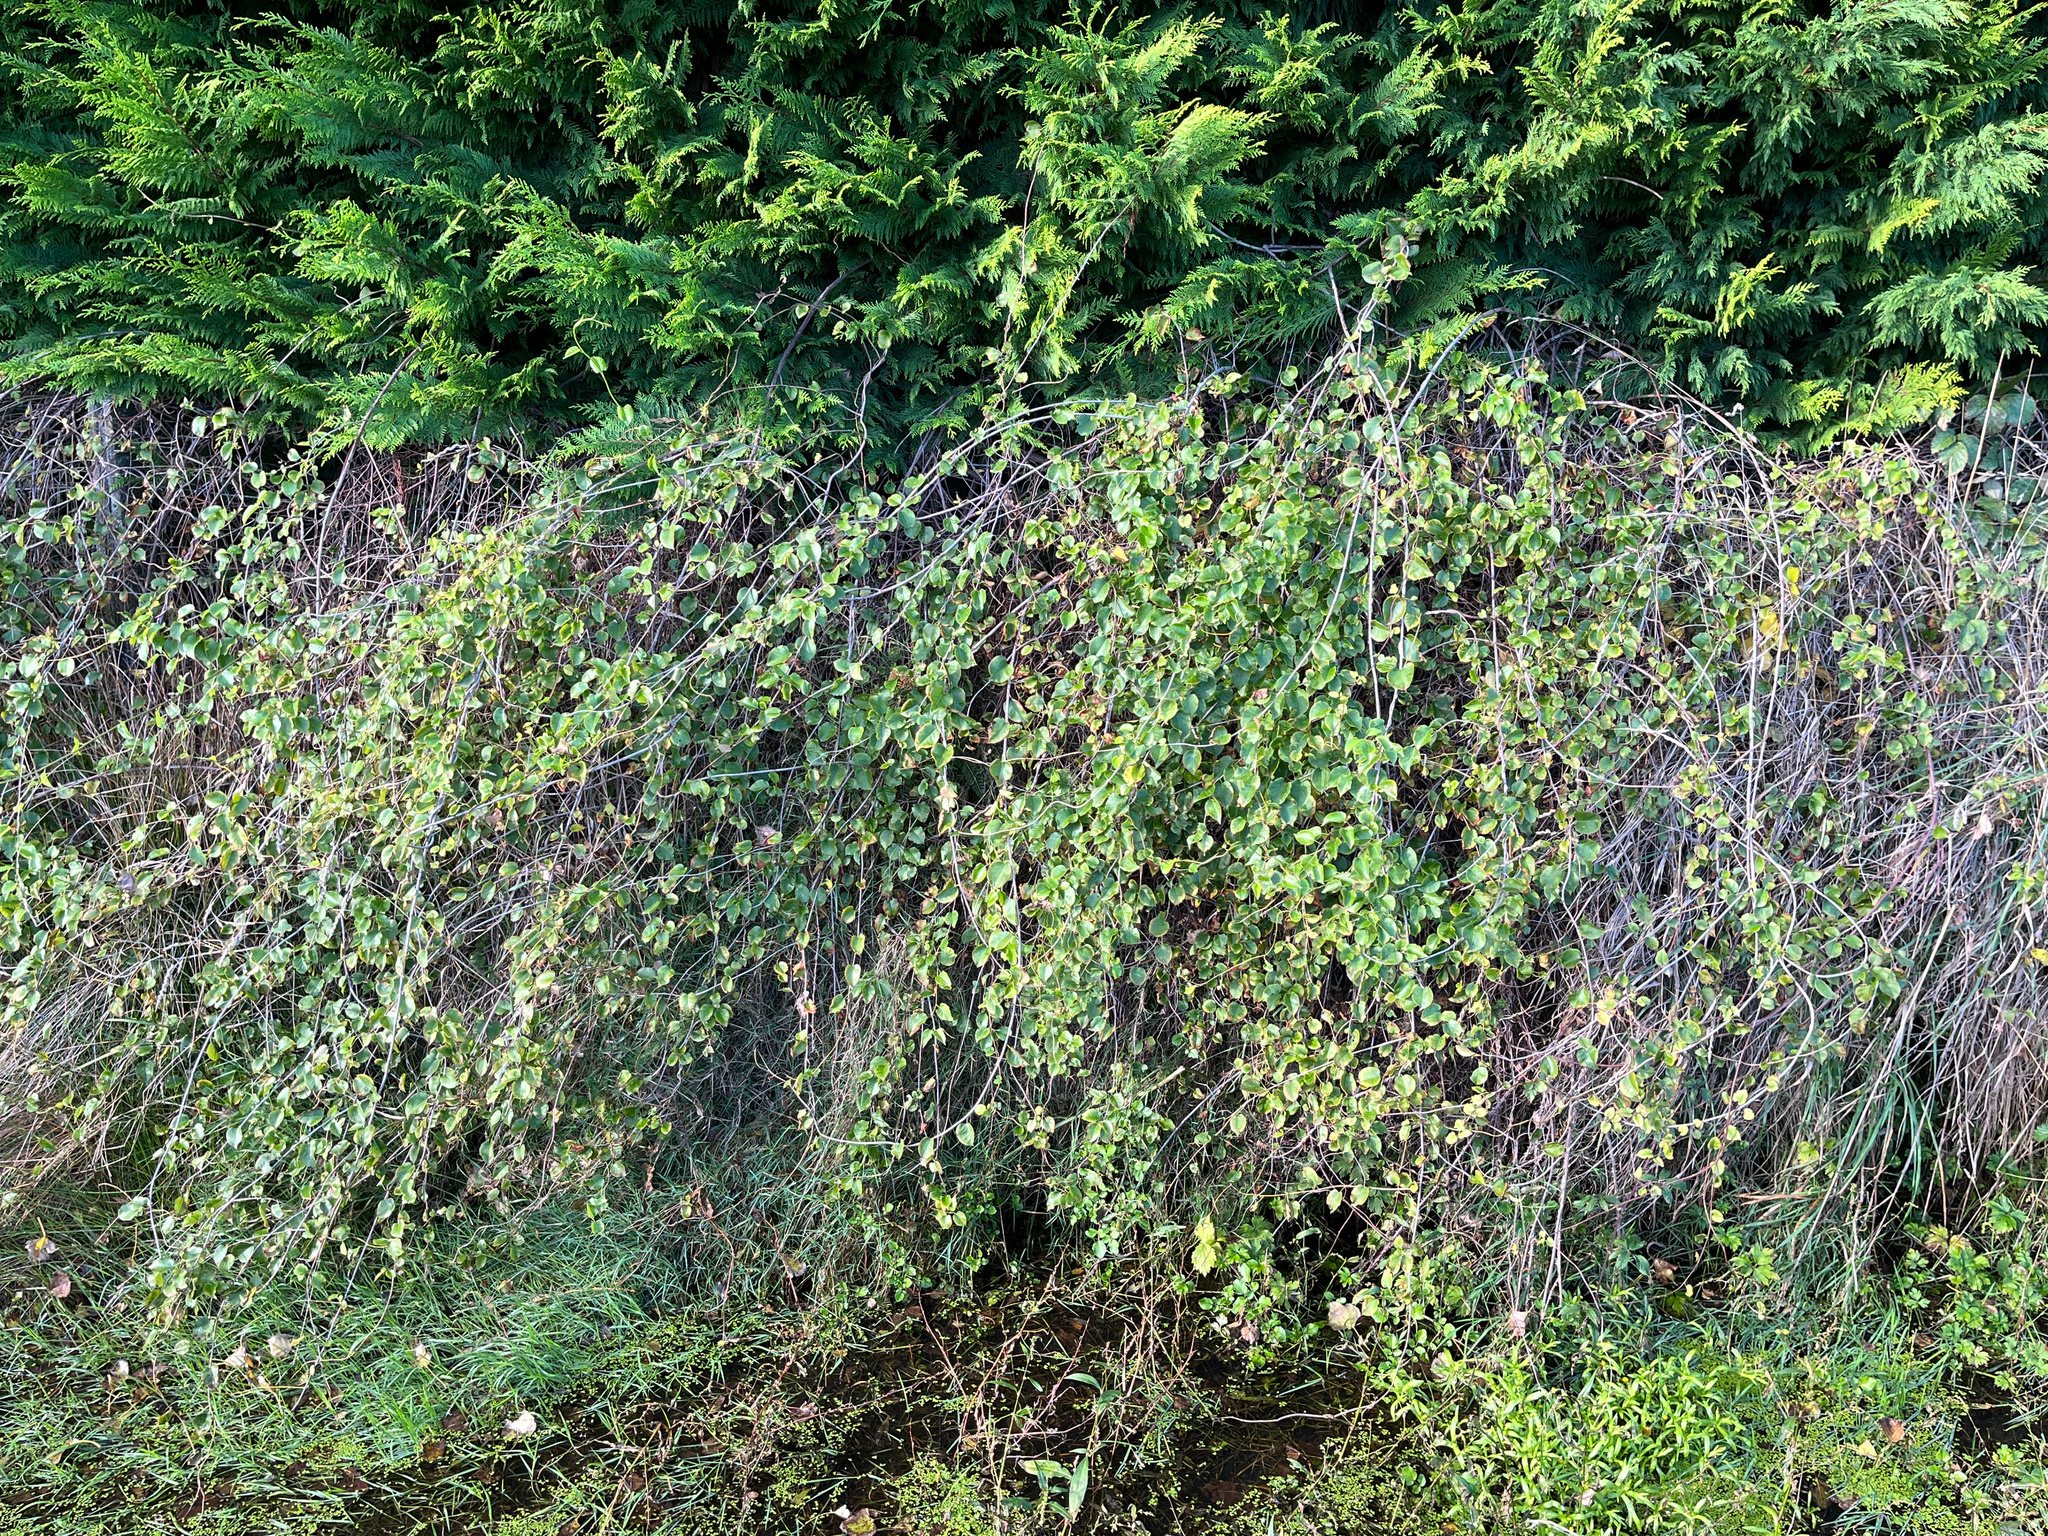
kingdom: Plantae
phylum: Tracheophyta
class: Magnoliopsida
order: Caryophyllales
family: Polygonaceae
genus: Muehlenbeckia
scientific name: Muehlenbeckia australis
